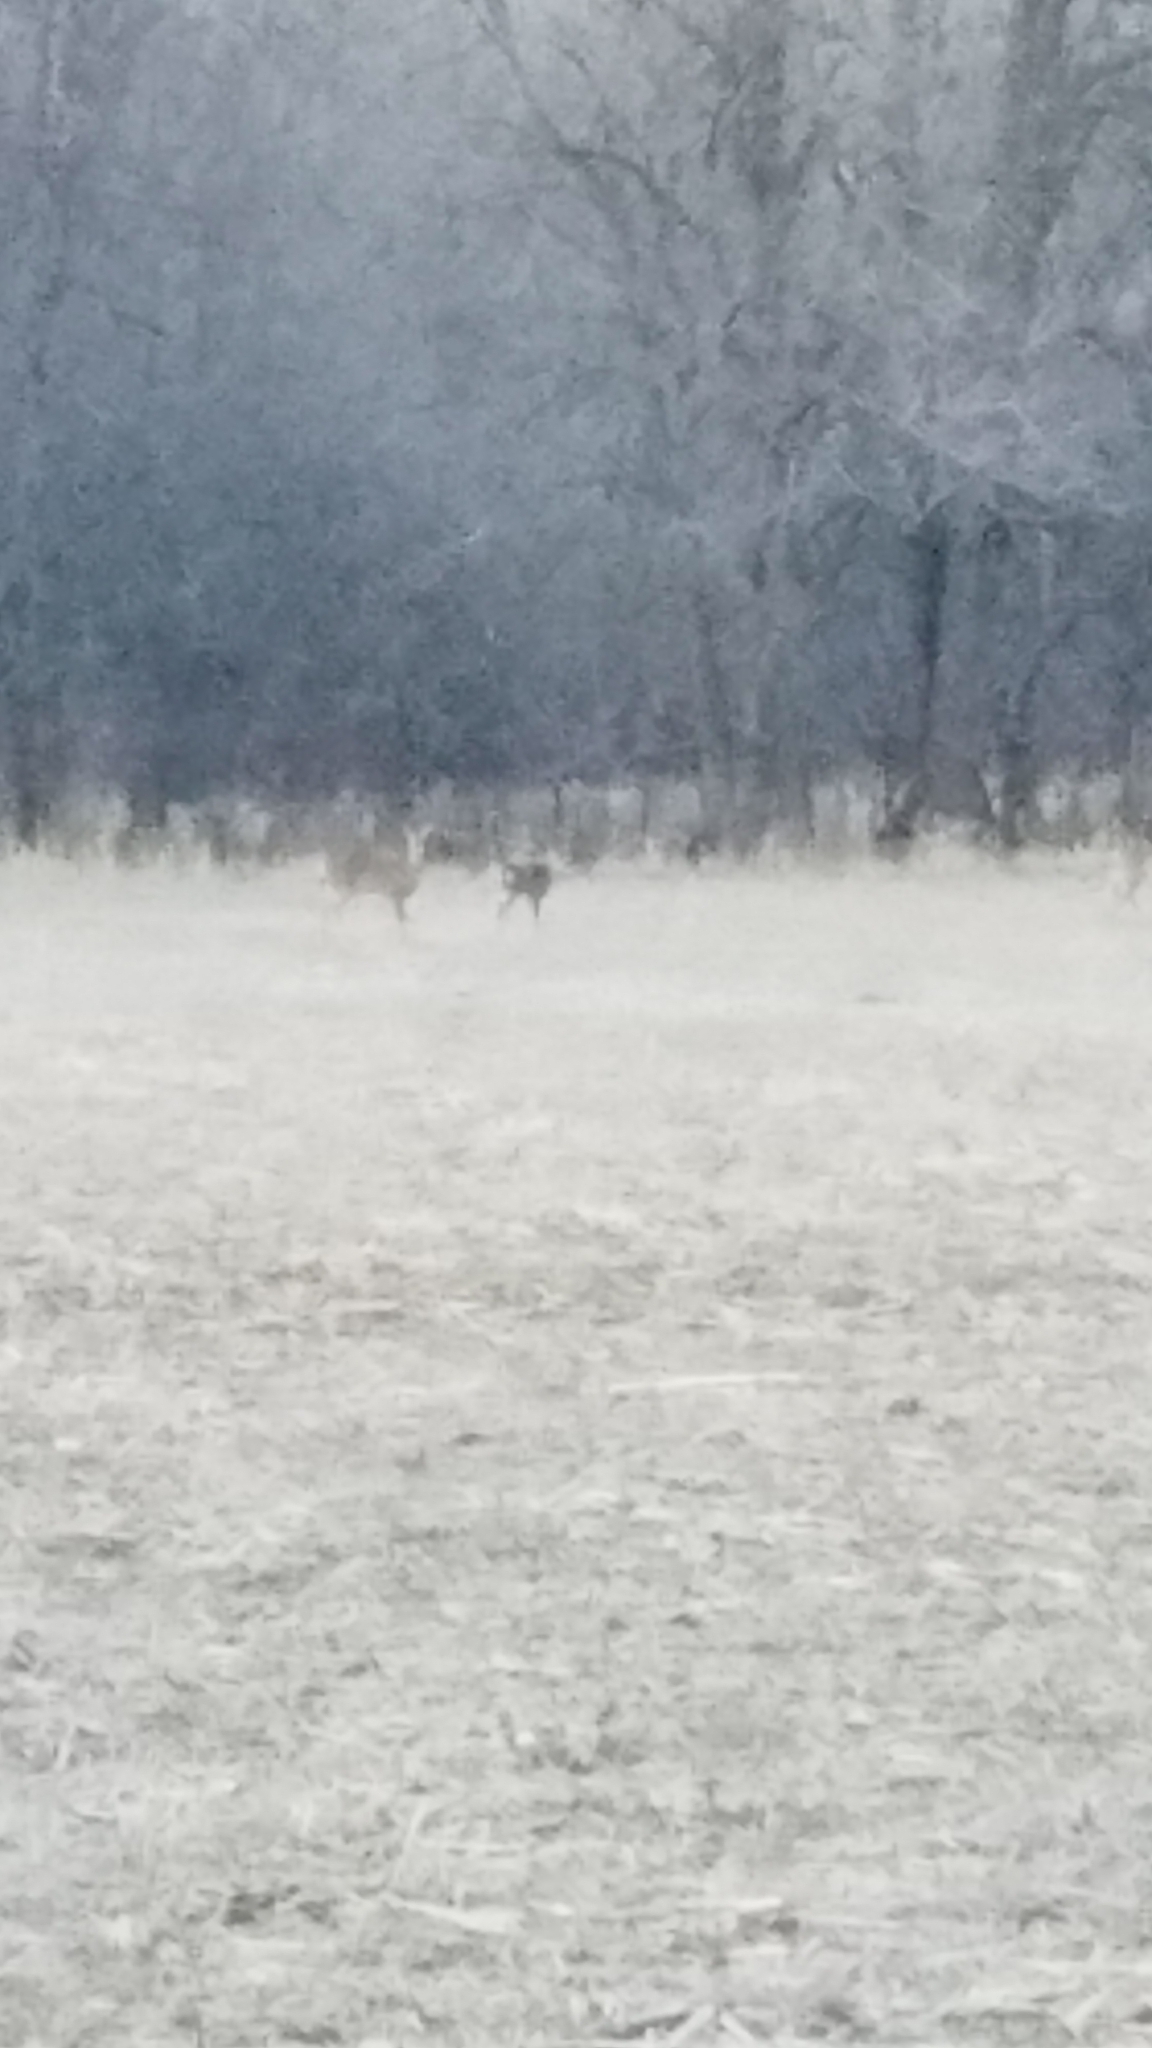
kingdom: Animalia
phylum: Chordata
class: Mammalia
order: Artiodactyla
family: Cervidae
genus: Odocoileus
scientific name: Odocoileus virginianus
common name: White-tailed deer
